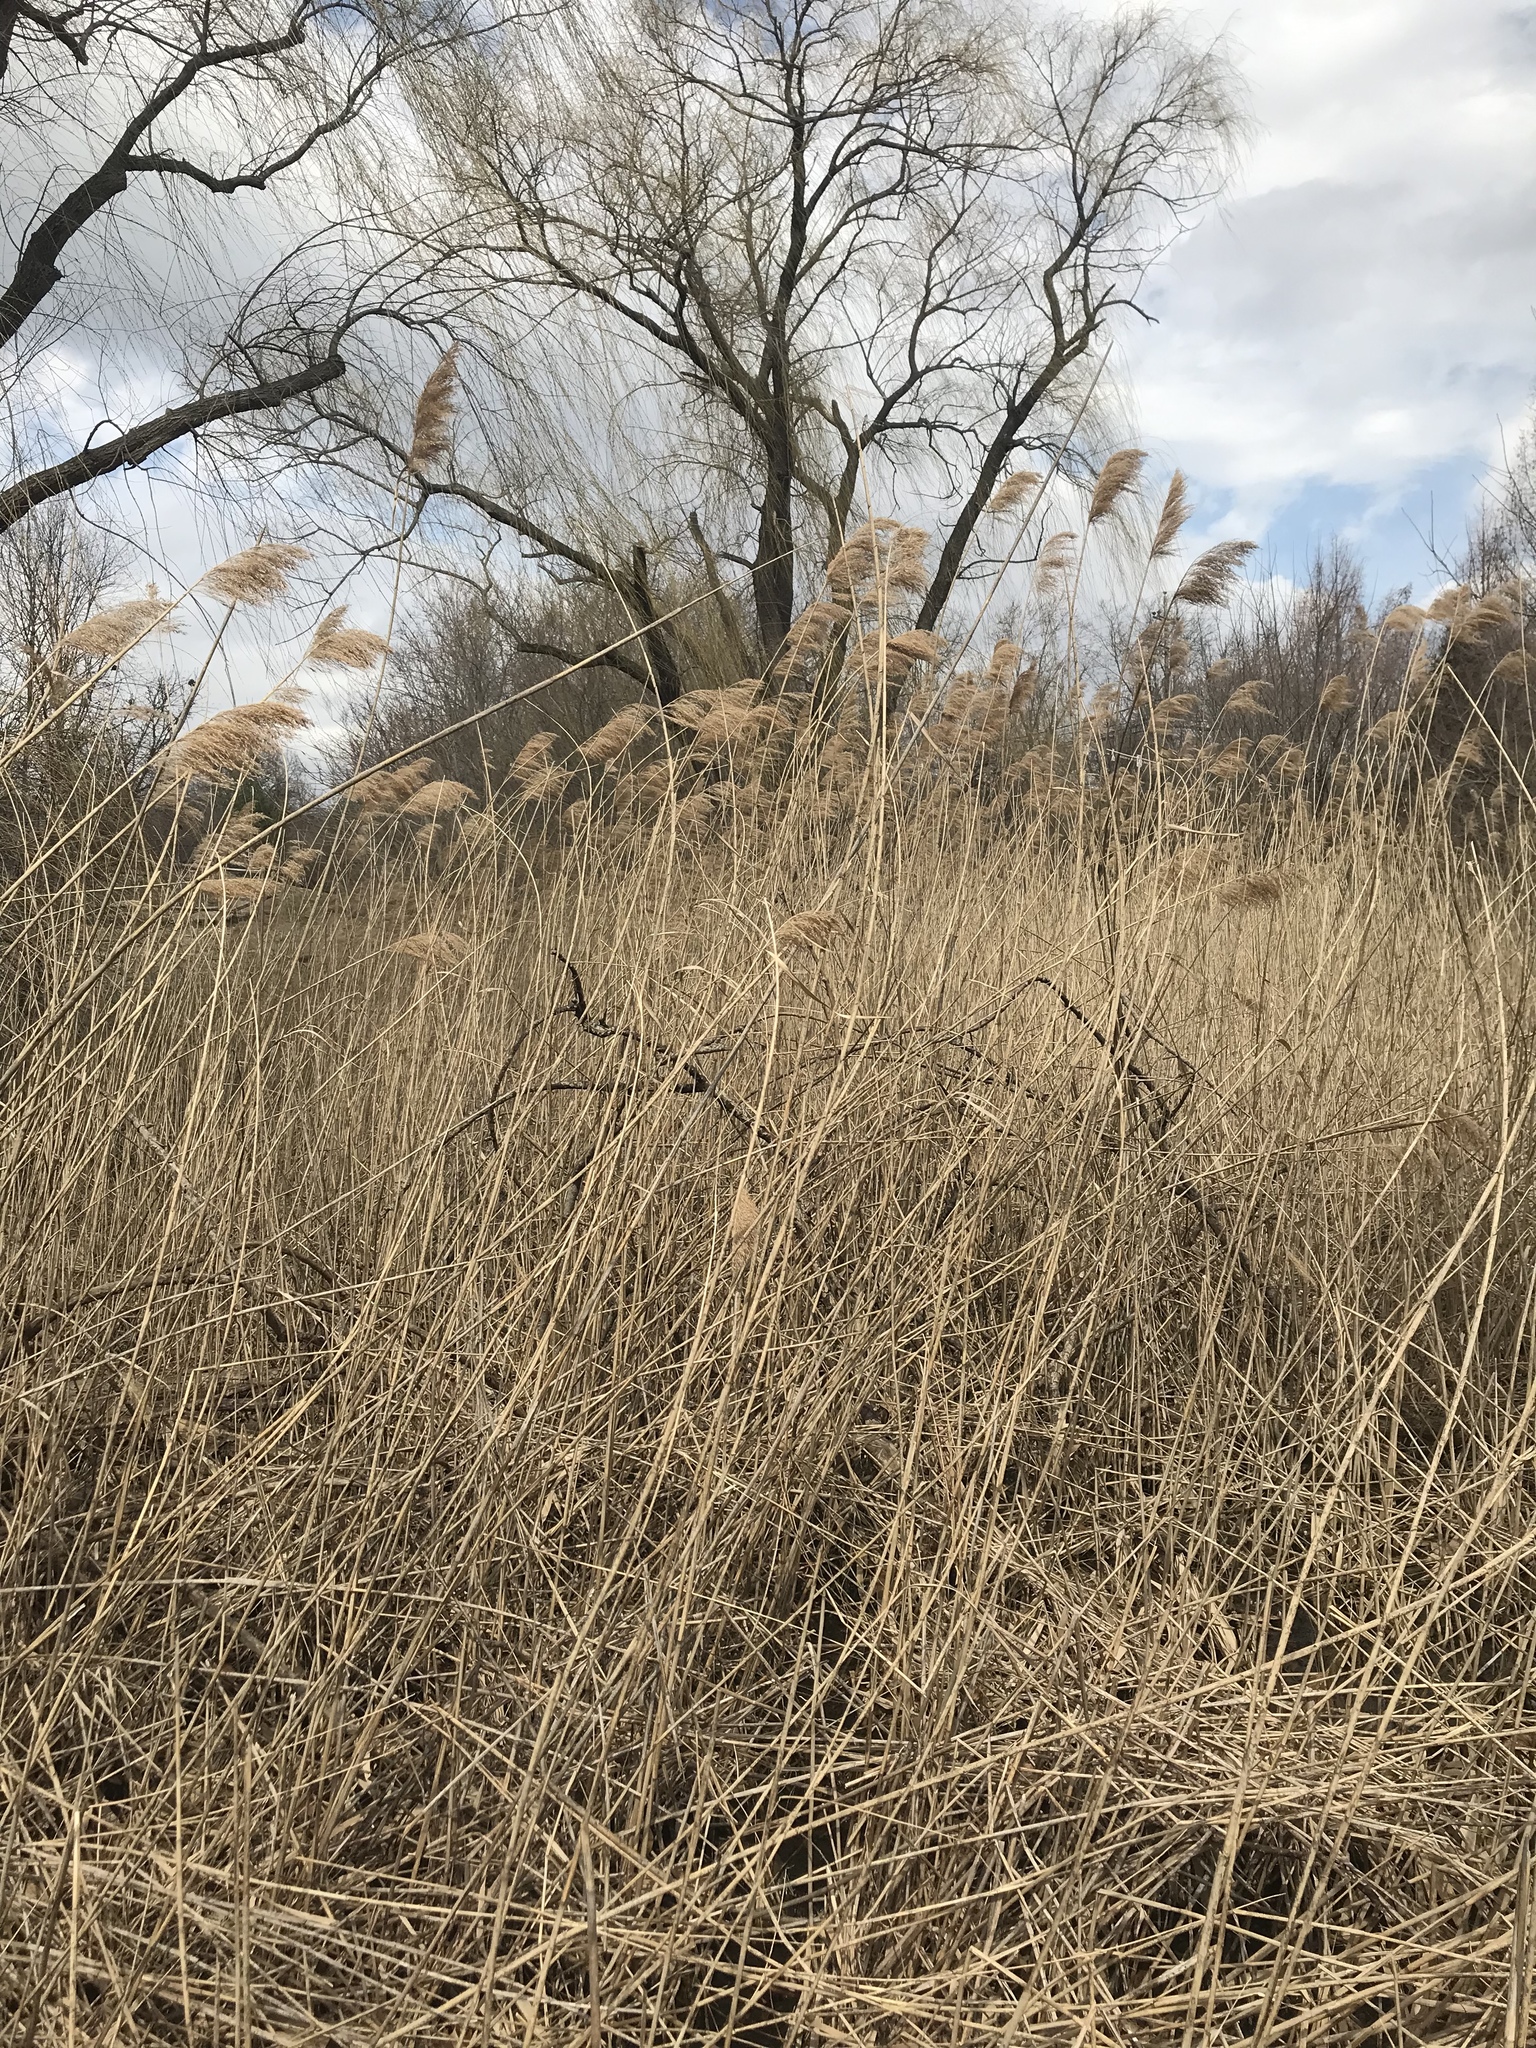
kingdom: Plantae
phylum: Tracheophyta
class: Liliopsida
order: Poales
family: Poaceae
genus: Phragmites
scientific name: Phragmites australis
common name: Common reed
